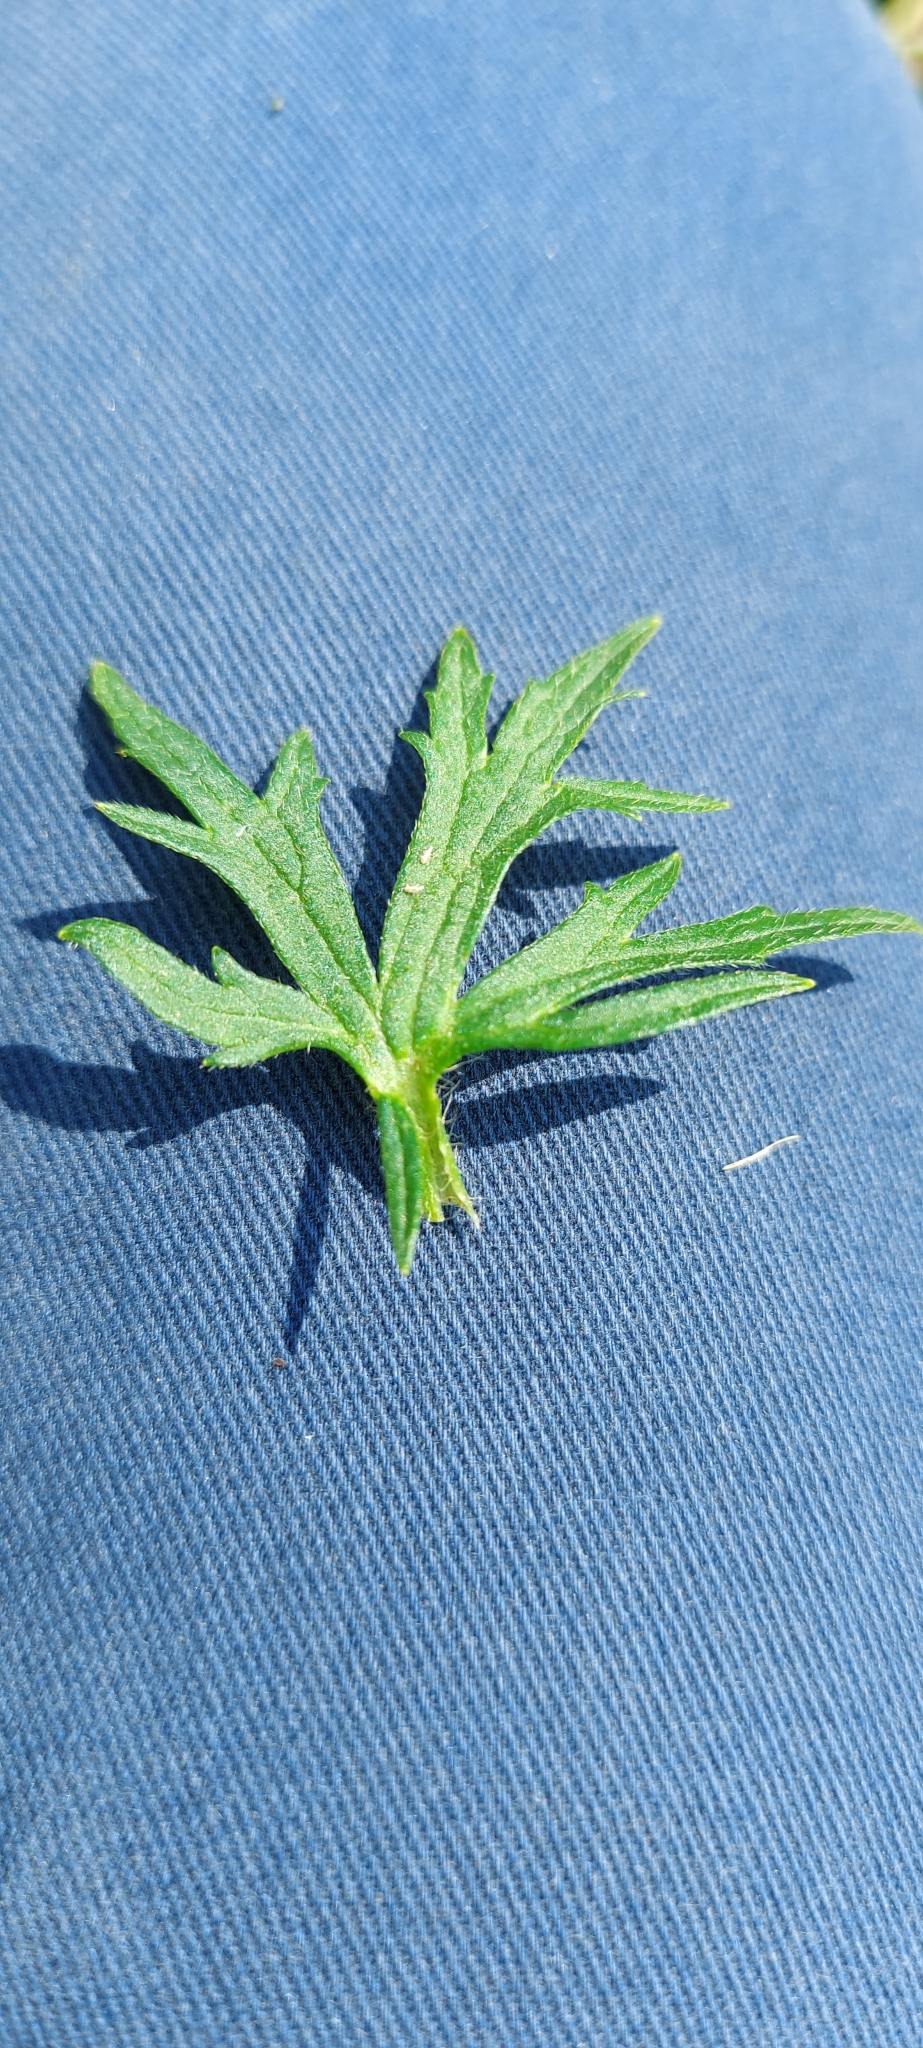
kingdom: Plantae
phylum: Tracheophyta
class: Magnoliopsida
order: Ranunculales
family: Ranunculaceae
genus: Ranunculus
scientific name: Ranunculus polyanthemos
